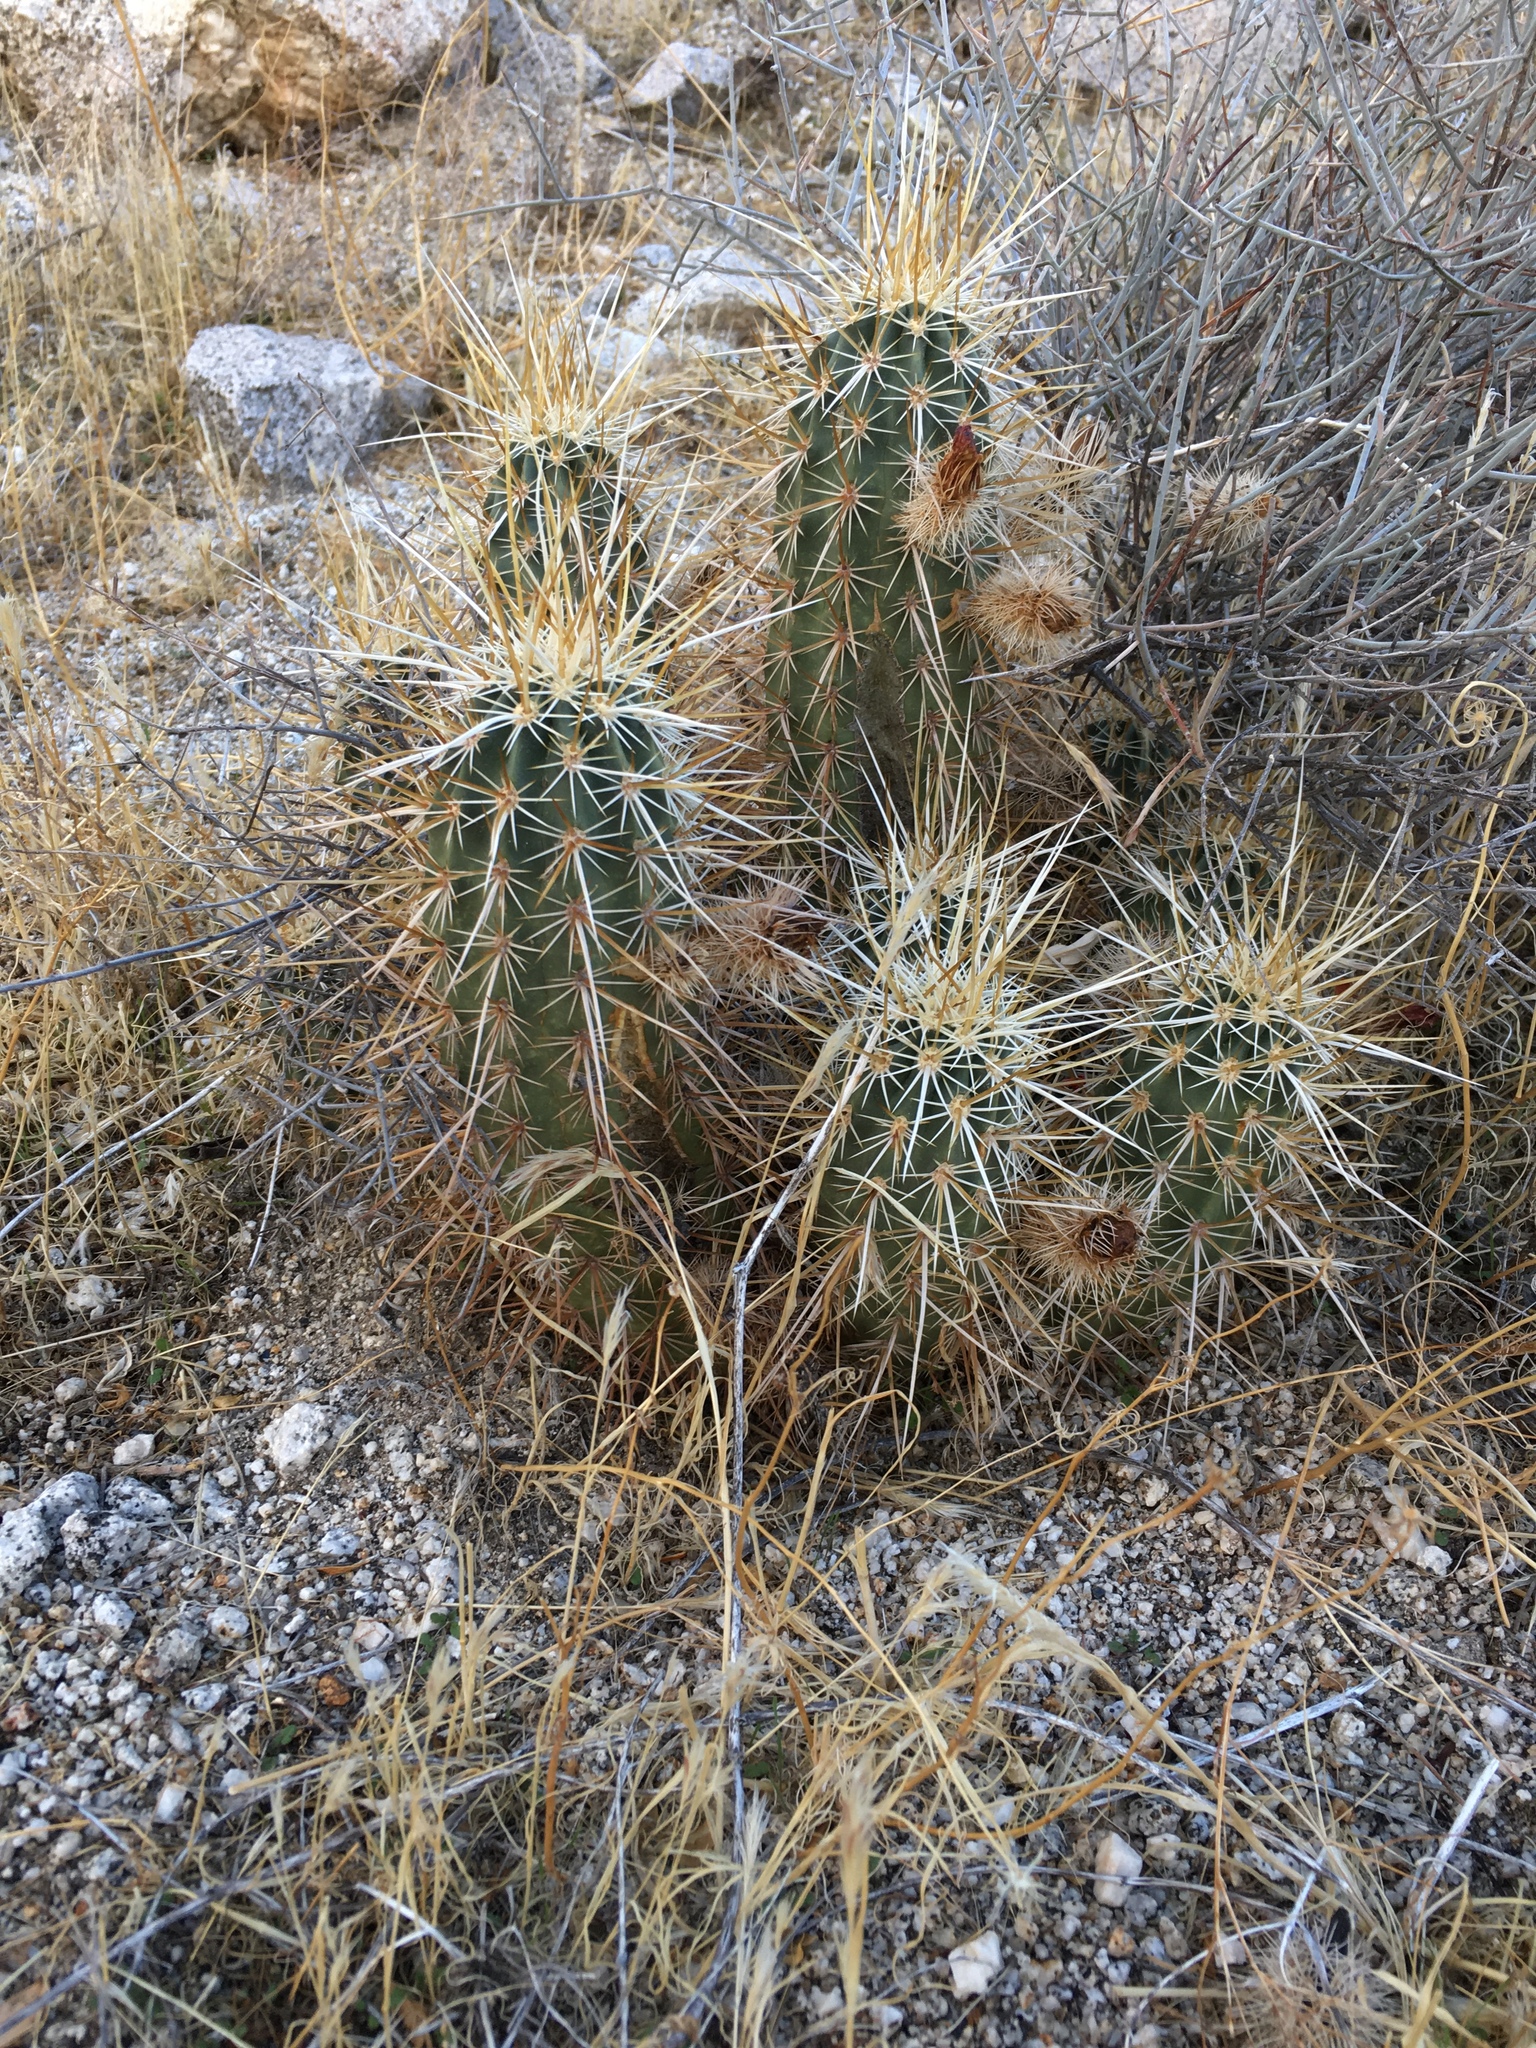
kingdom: Plantae
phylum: Tracheophyta
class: Magnoliopsida
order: Caryophyllales
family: Cactaceae
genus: Echinocereus
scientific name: Echinocereus engelmannii
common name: Engelmann's hedgehog cactus
